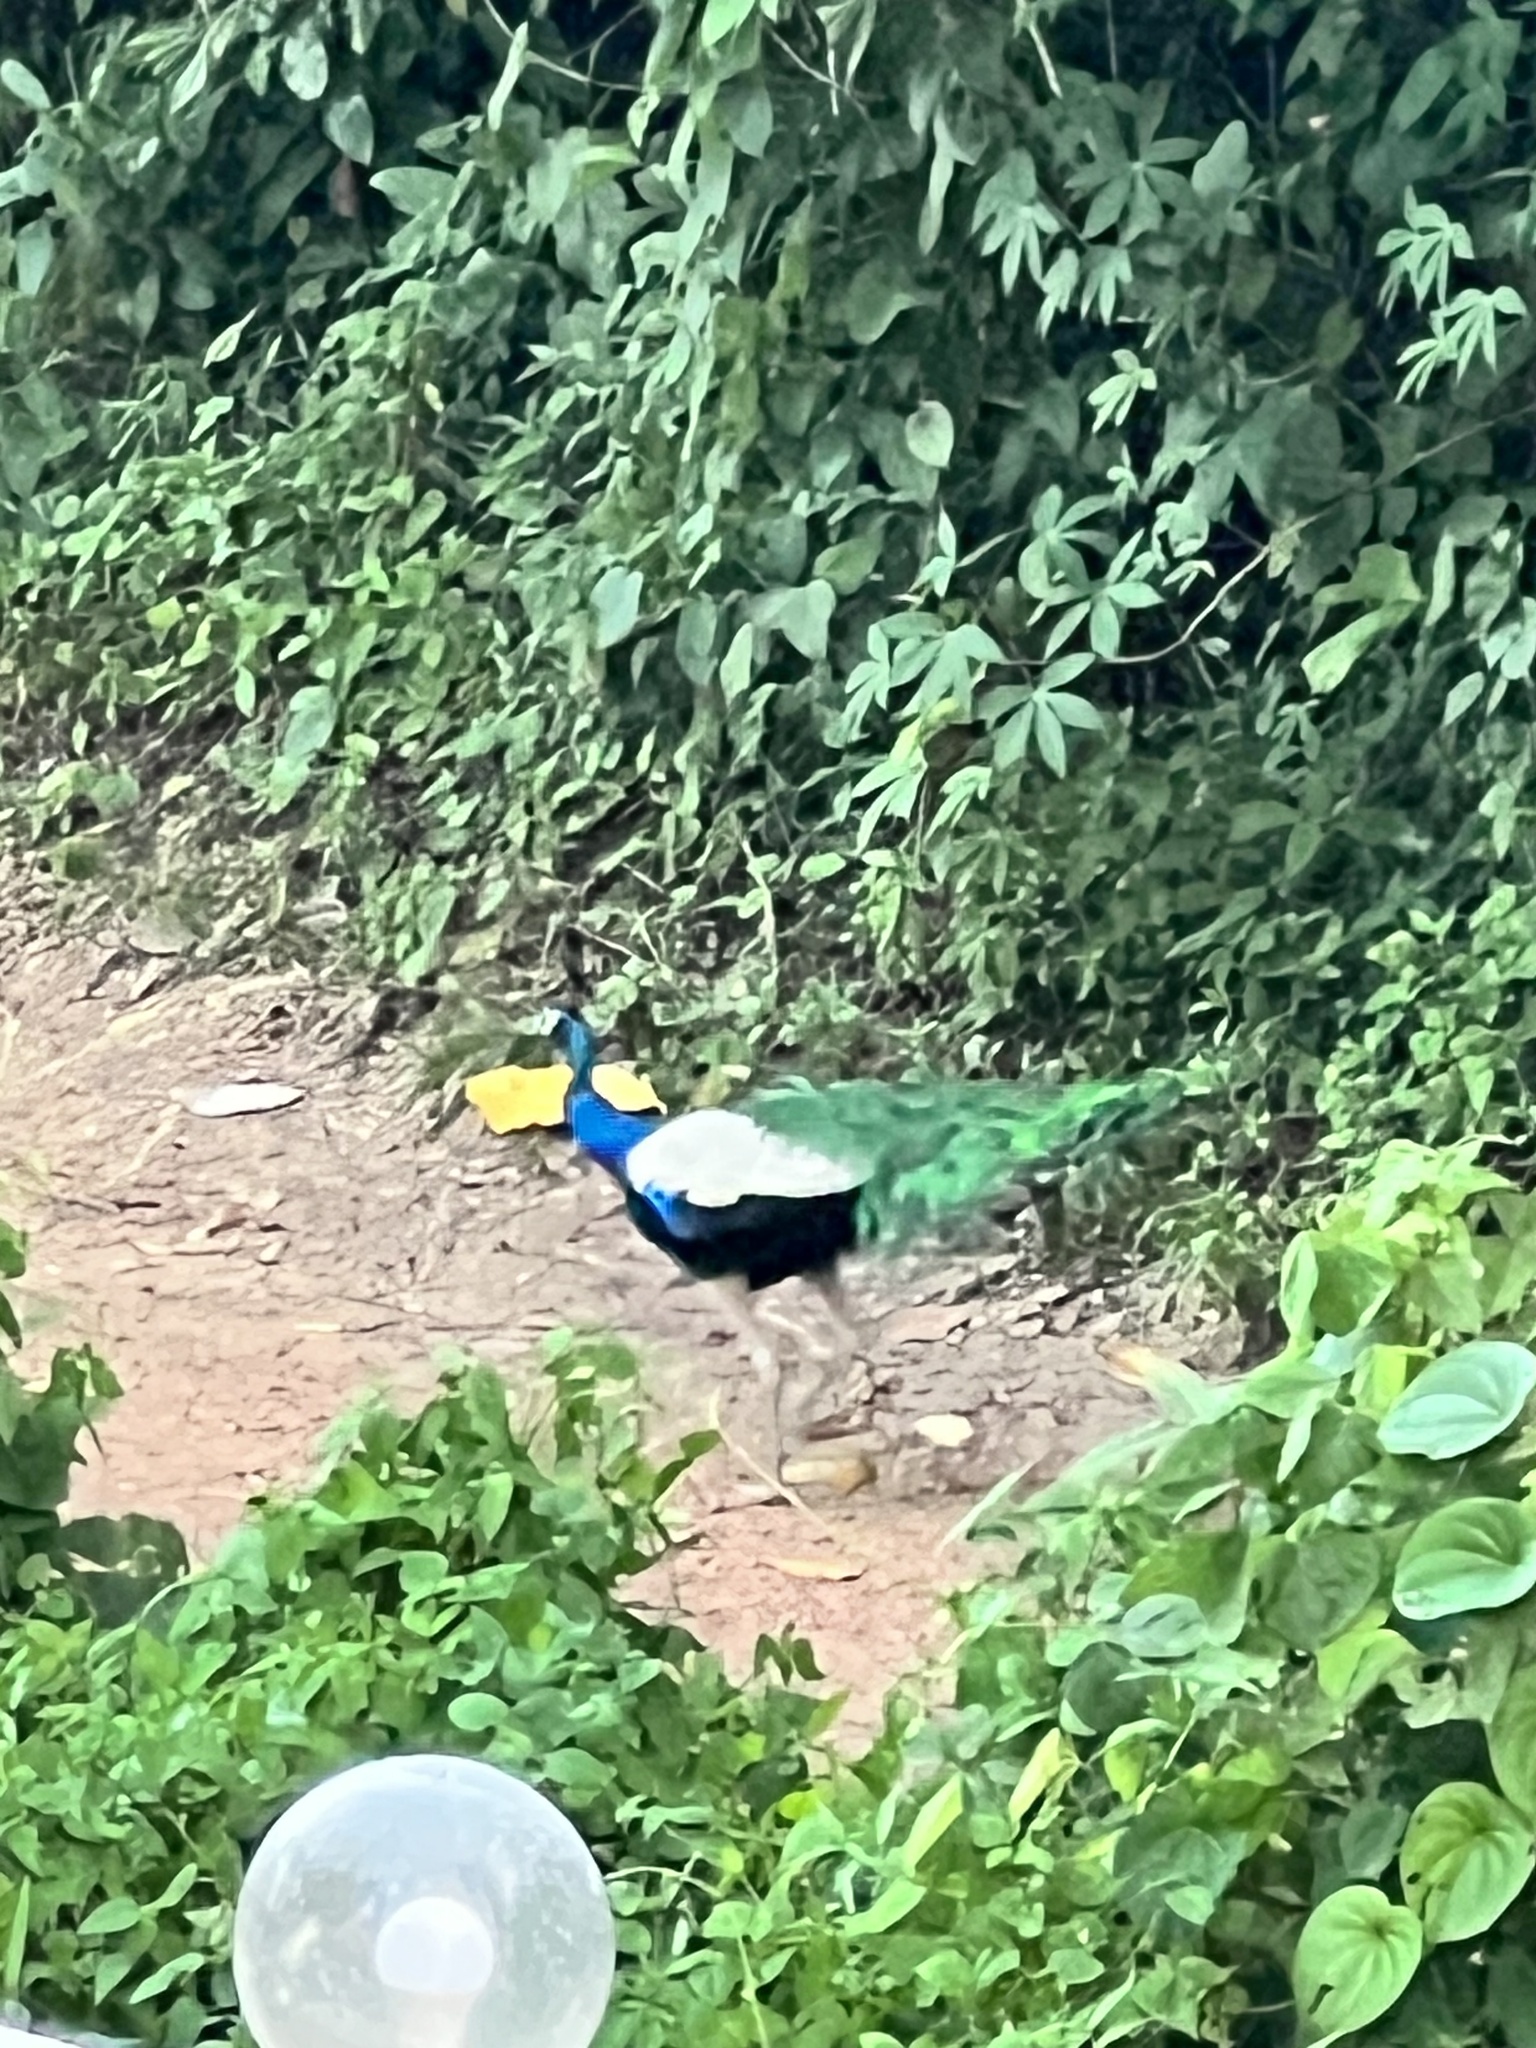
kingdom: Animalia
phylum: Chordata
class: Aves
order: Galliformes
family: Phasianidae
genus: Pavo
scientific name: Pavo cristatus
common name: Indian peafowl
